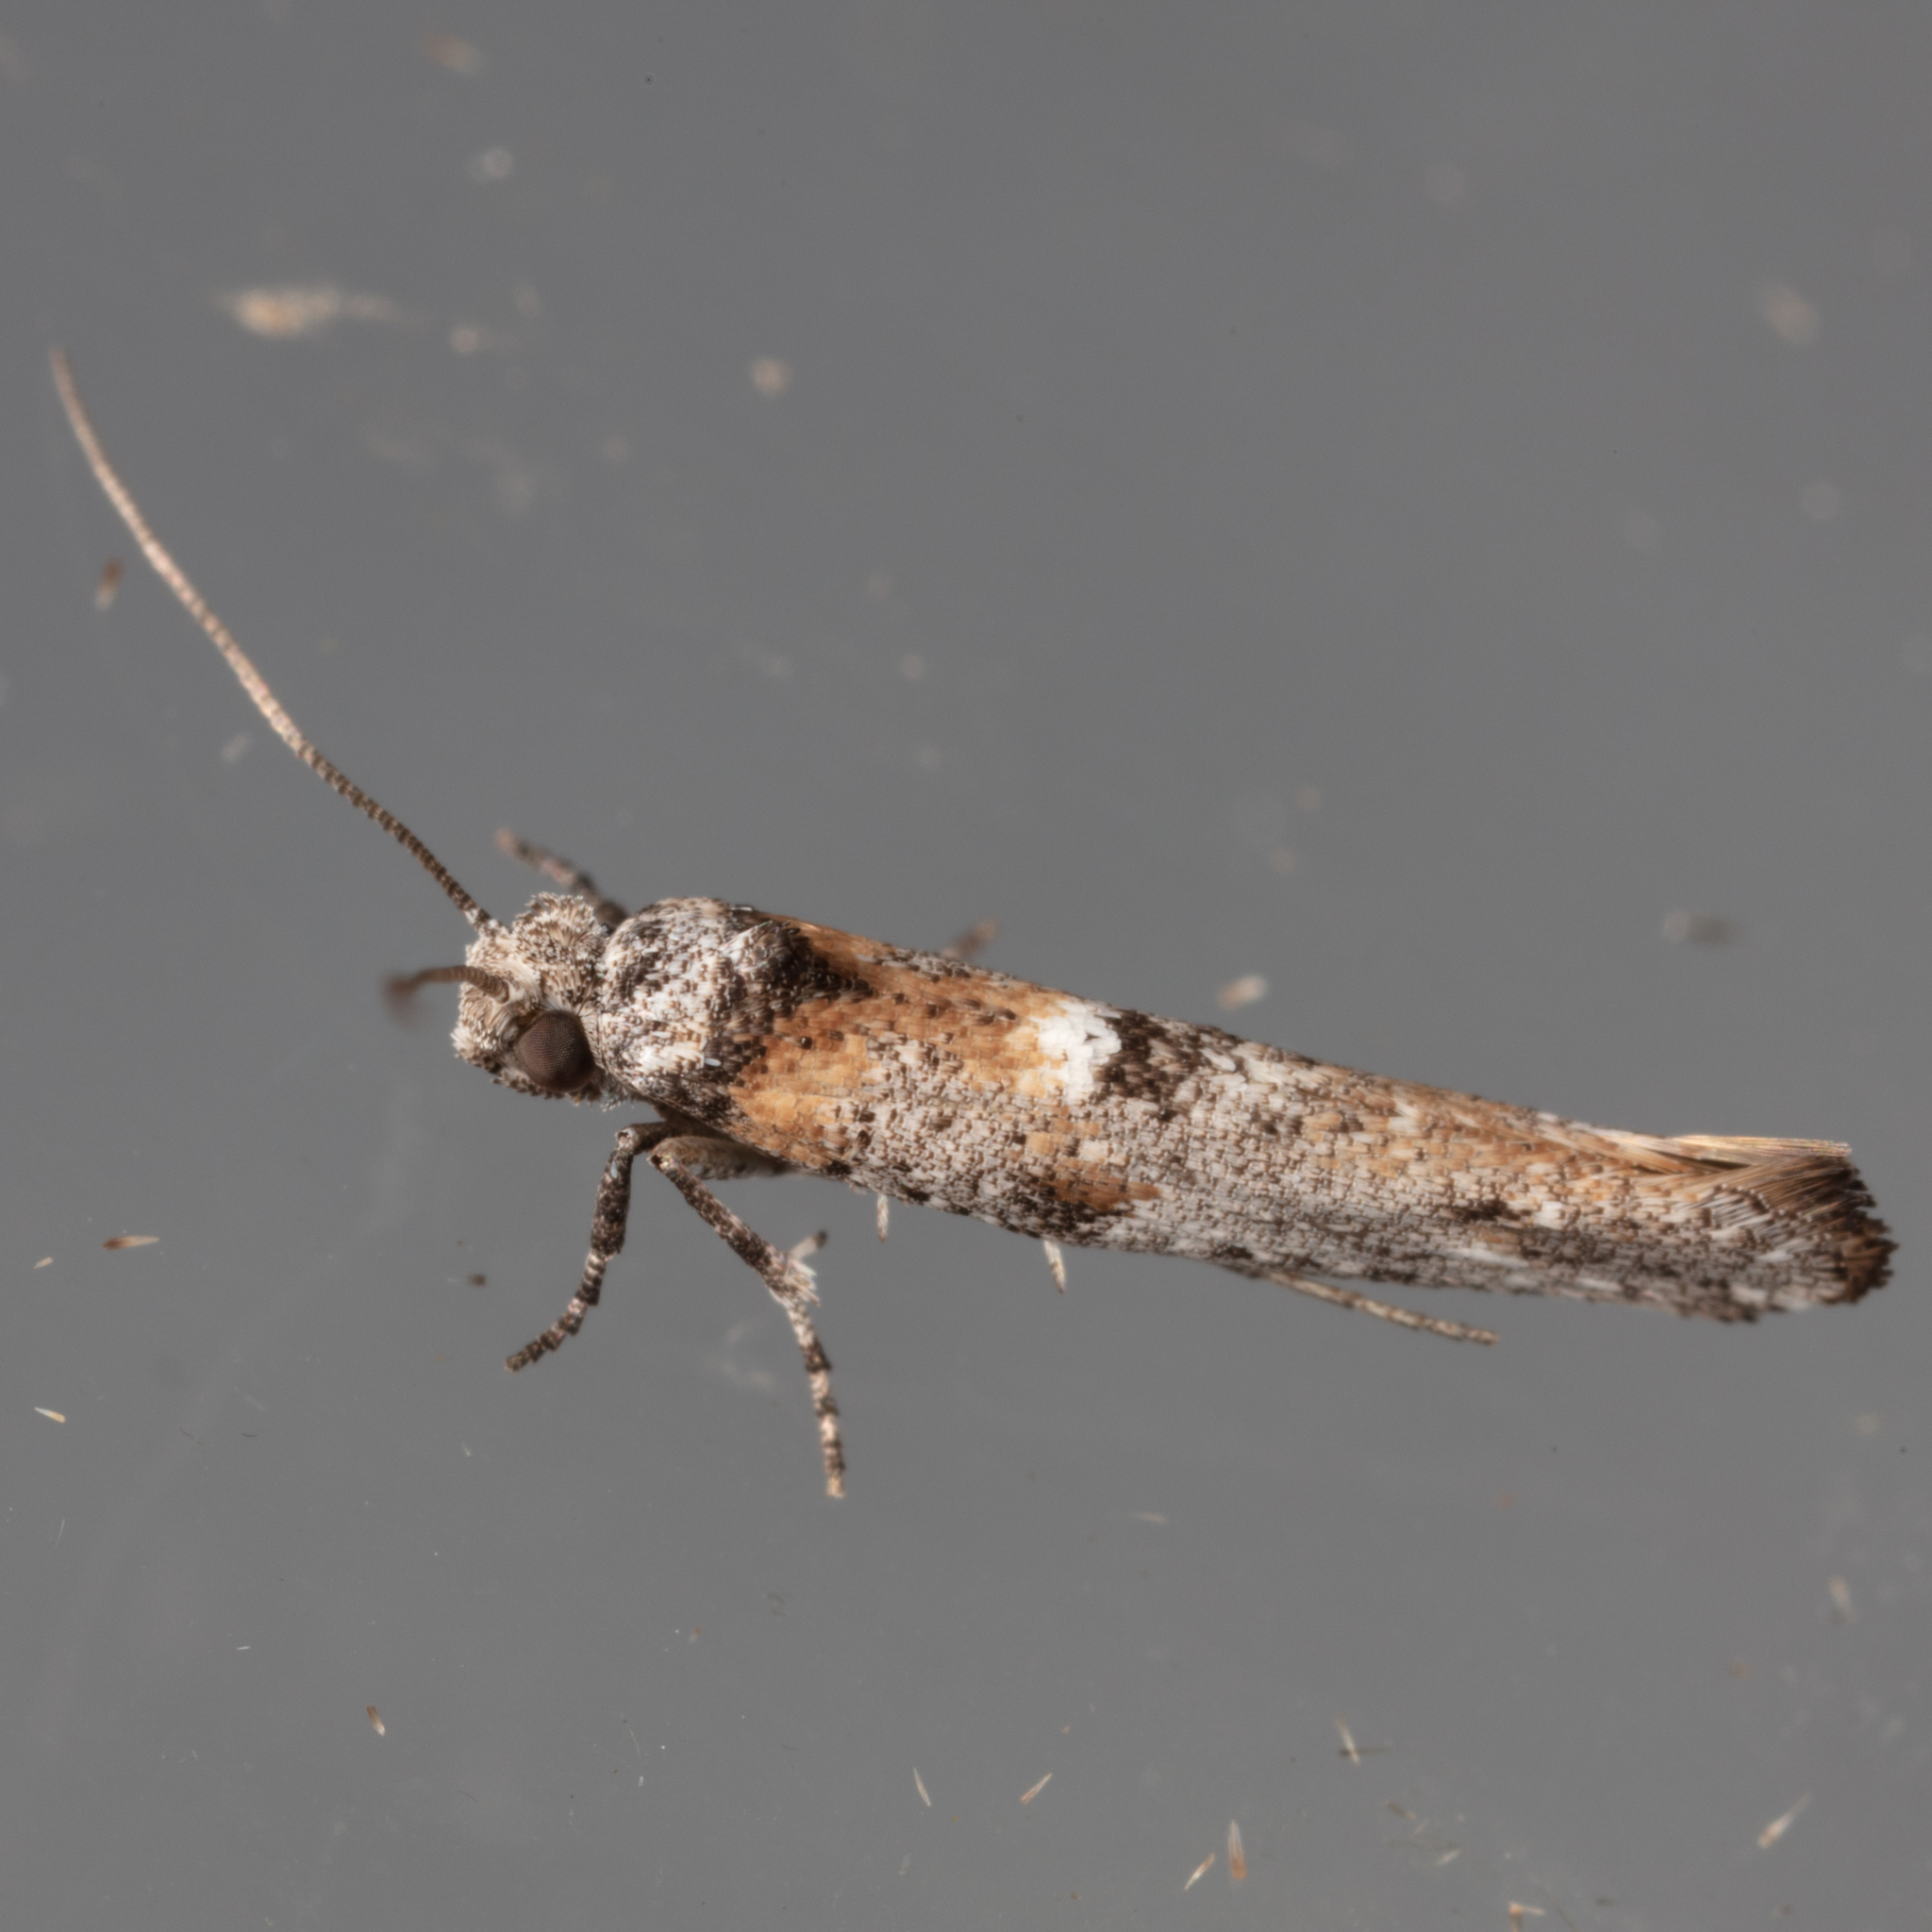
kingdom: Animalia
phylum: Arthropoda
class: Insecta
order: Lepidoptera
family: Yponomeutidae
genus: Zelleria
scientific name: Zelleria
